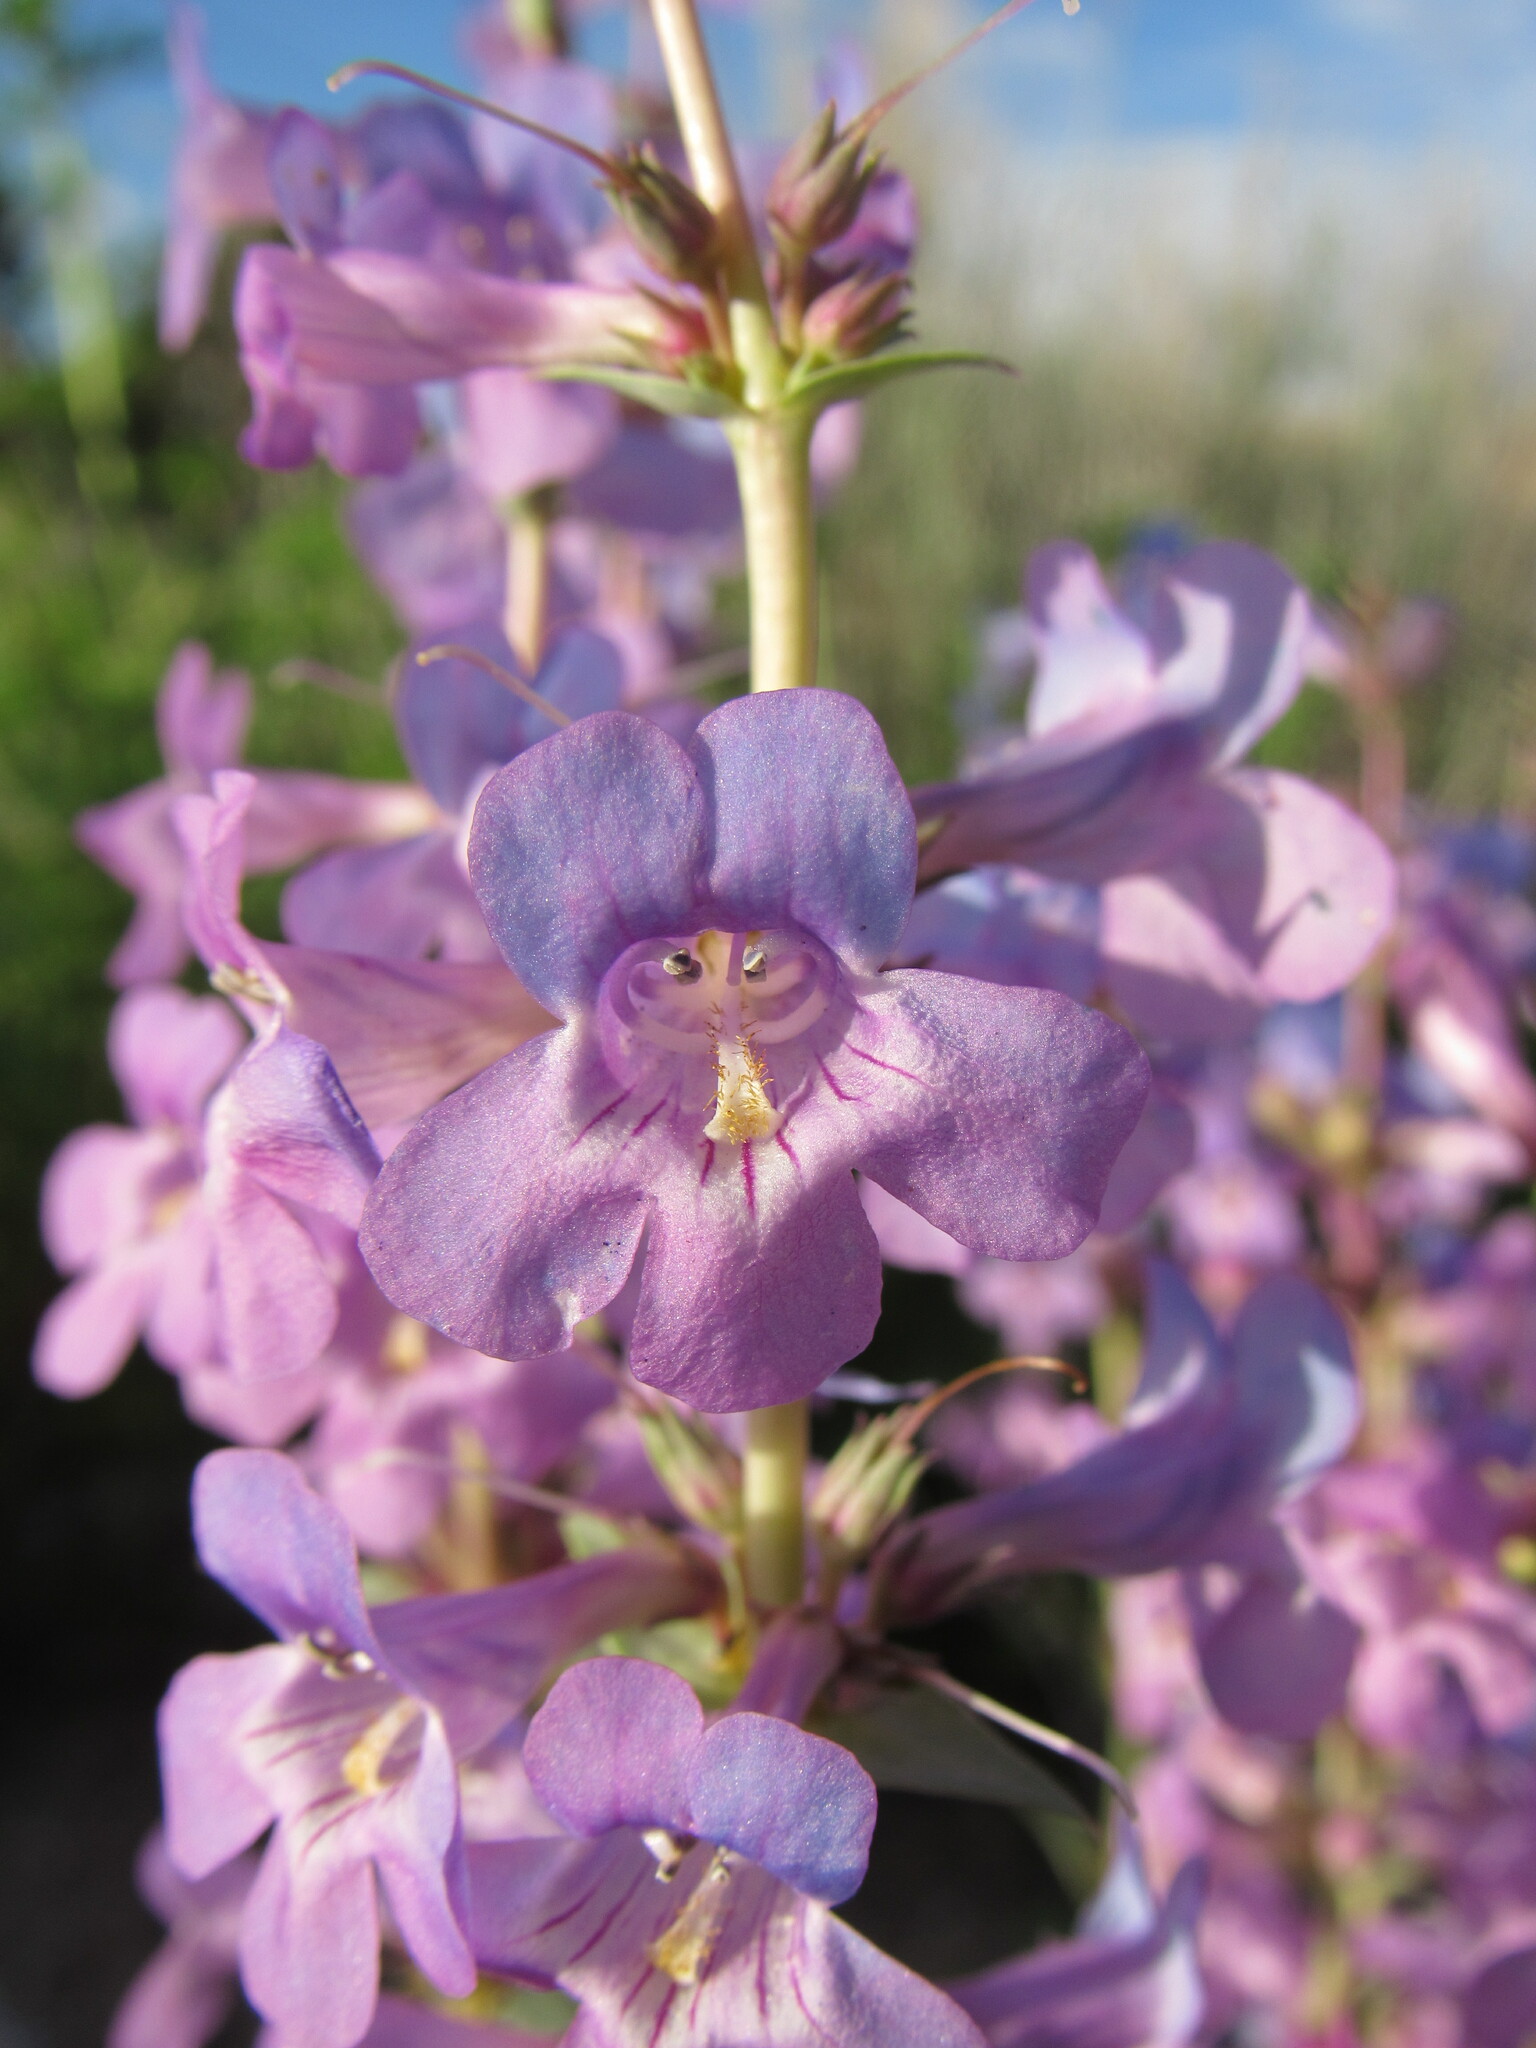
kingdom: Plantae
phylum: Tracheophyta
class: Magnoliopsida
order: Lamiales
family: Plantaginaceae
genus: Penstemon
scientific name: Penstemon angustifolius
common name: Narrow beardtongue
